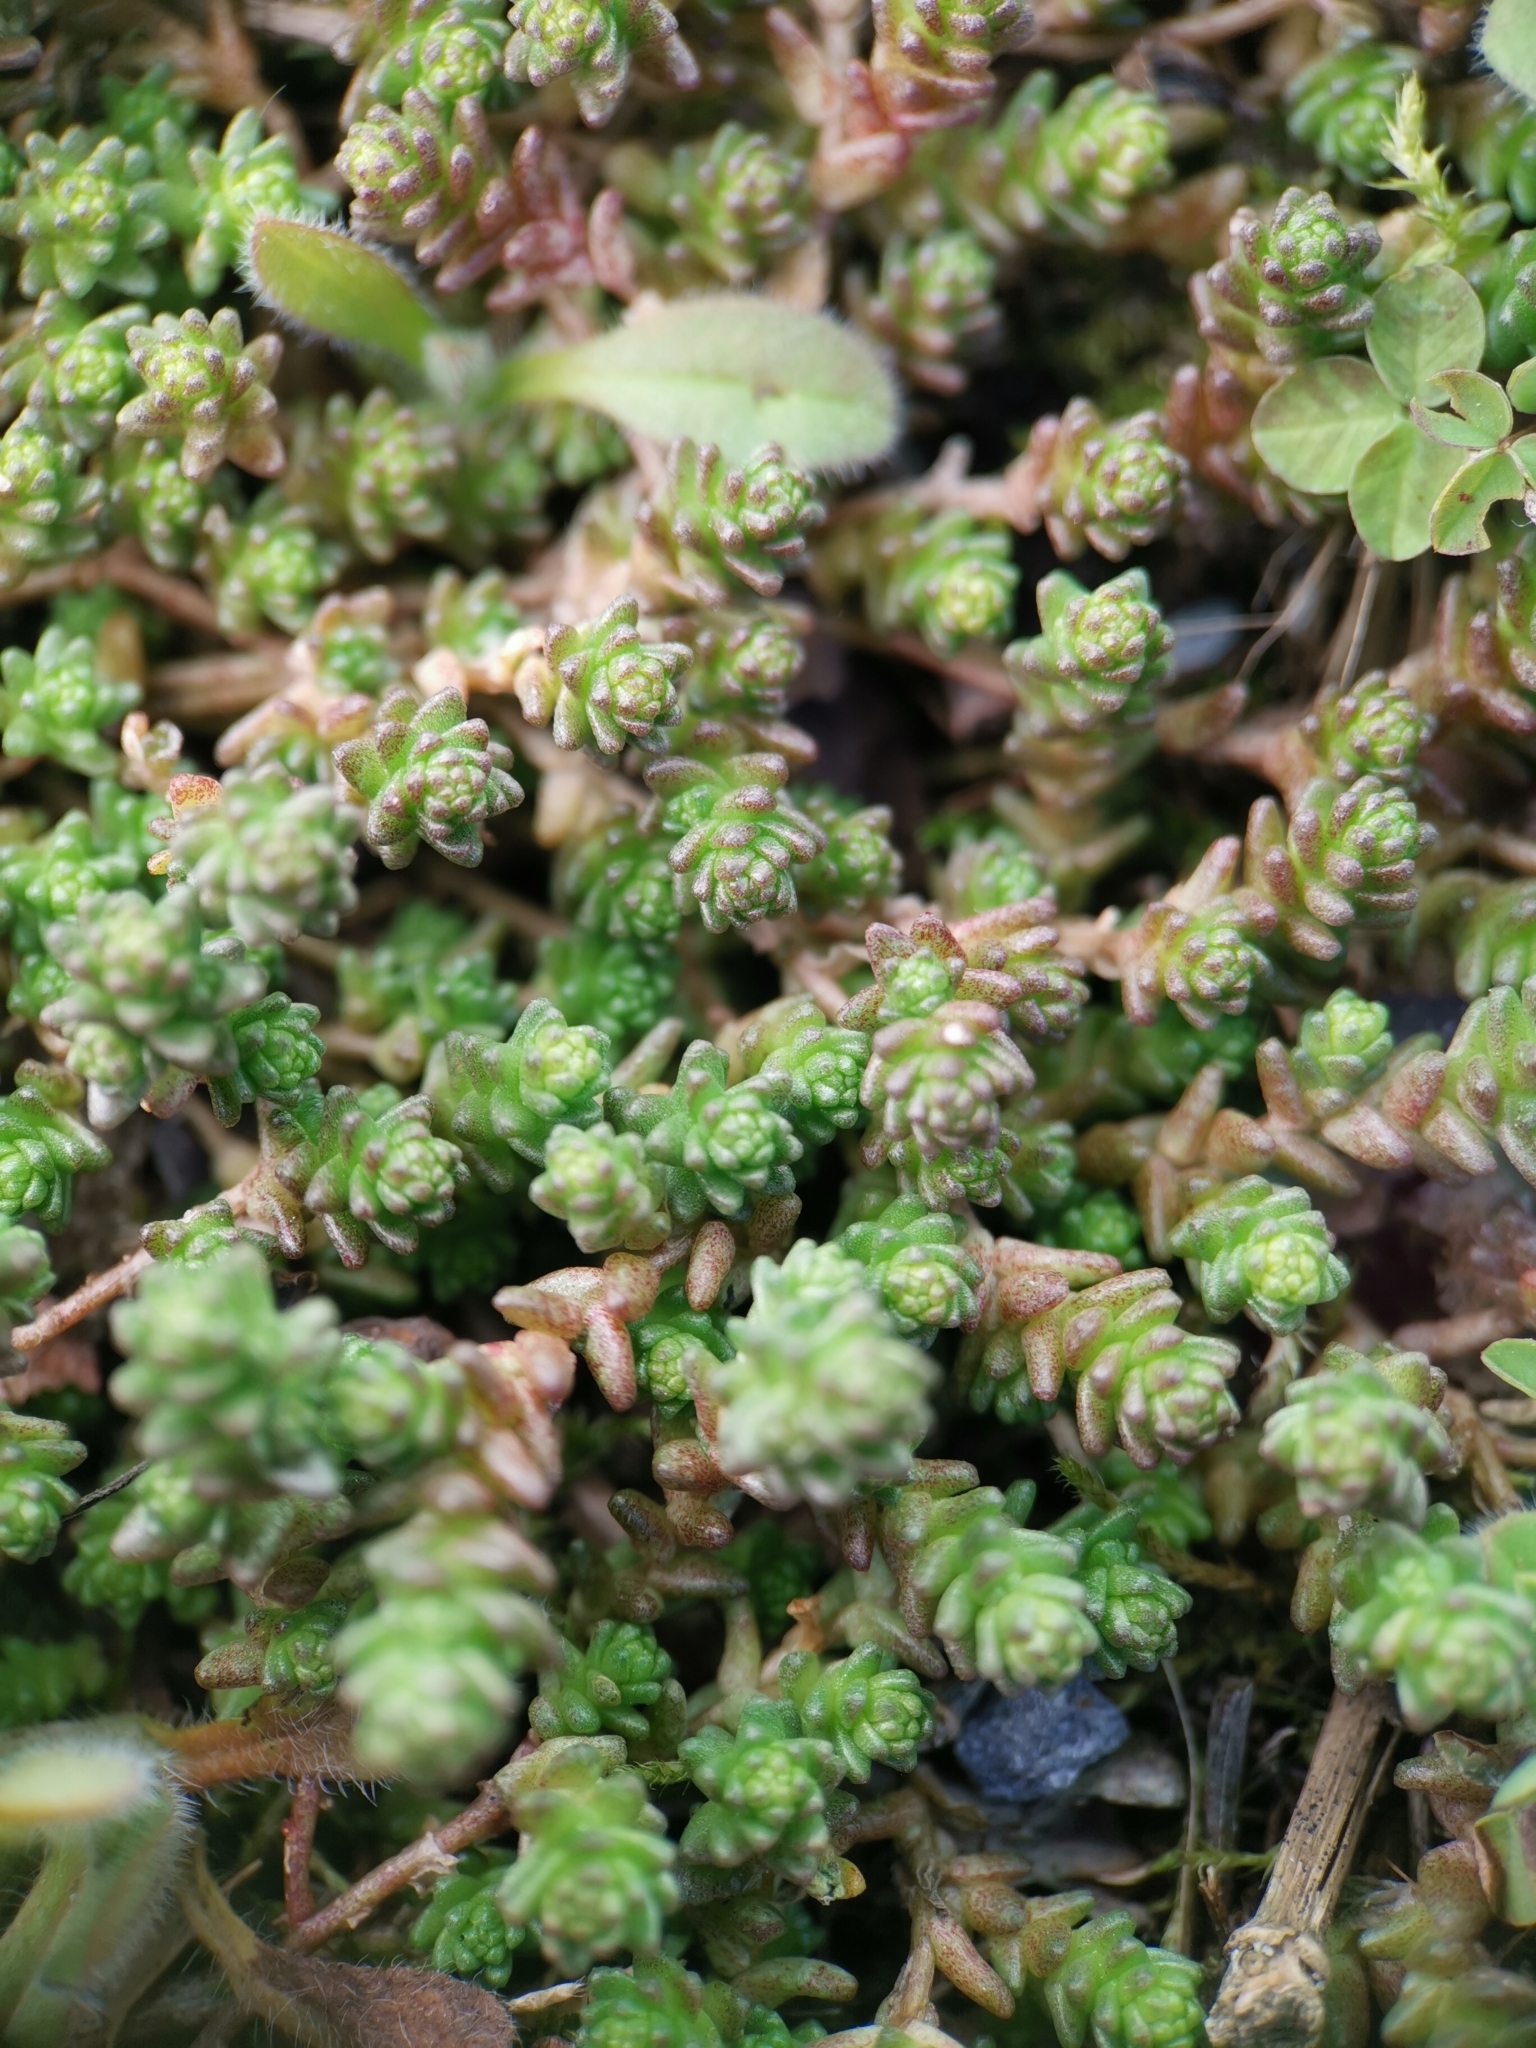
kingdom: Plantae
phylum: Tracheophyta
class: Magnoliopsida
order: Saxifragales
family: Crassulaceae
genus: Sedum
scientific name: Sedum acre
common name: Biting stonecrop
